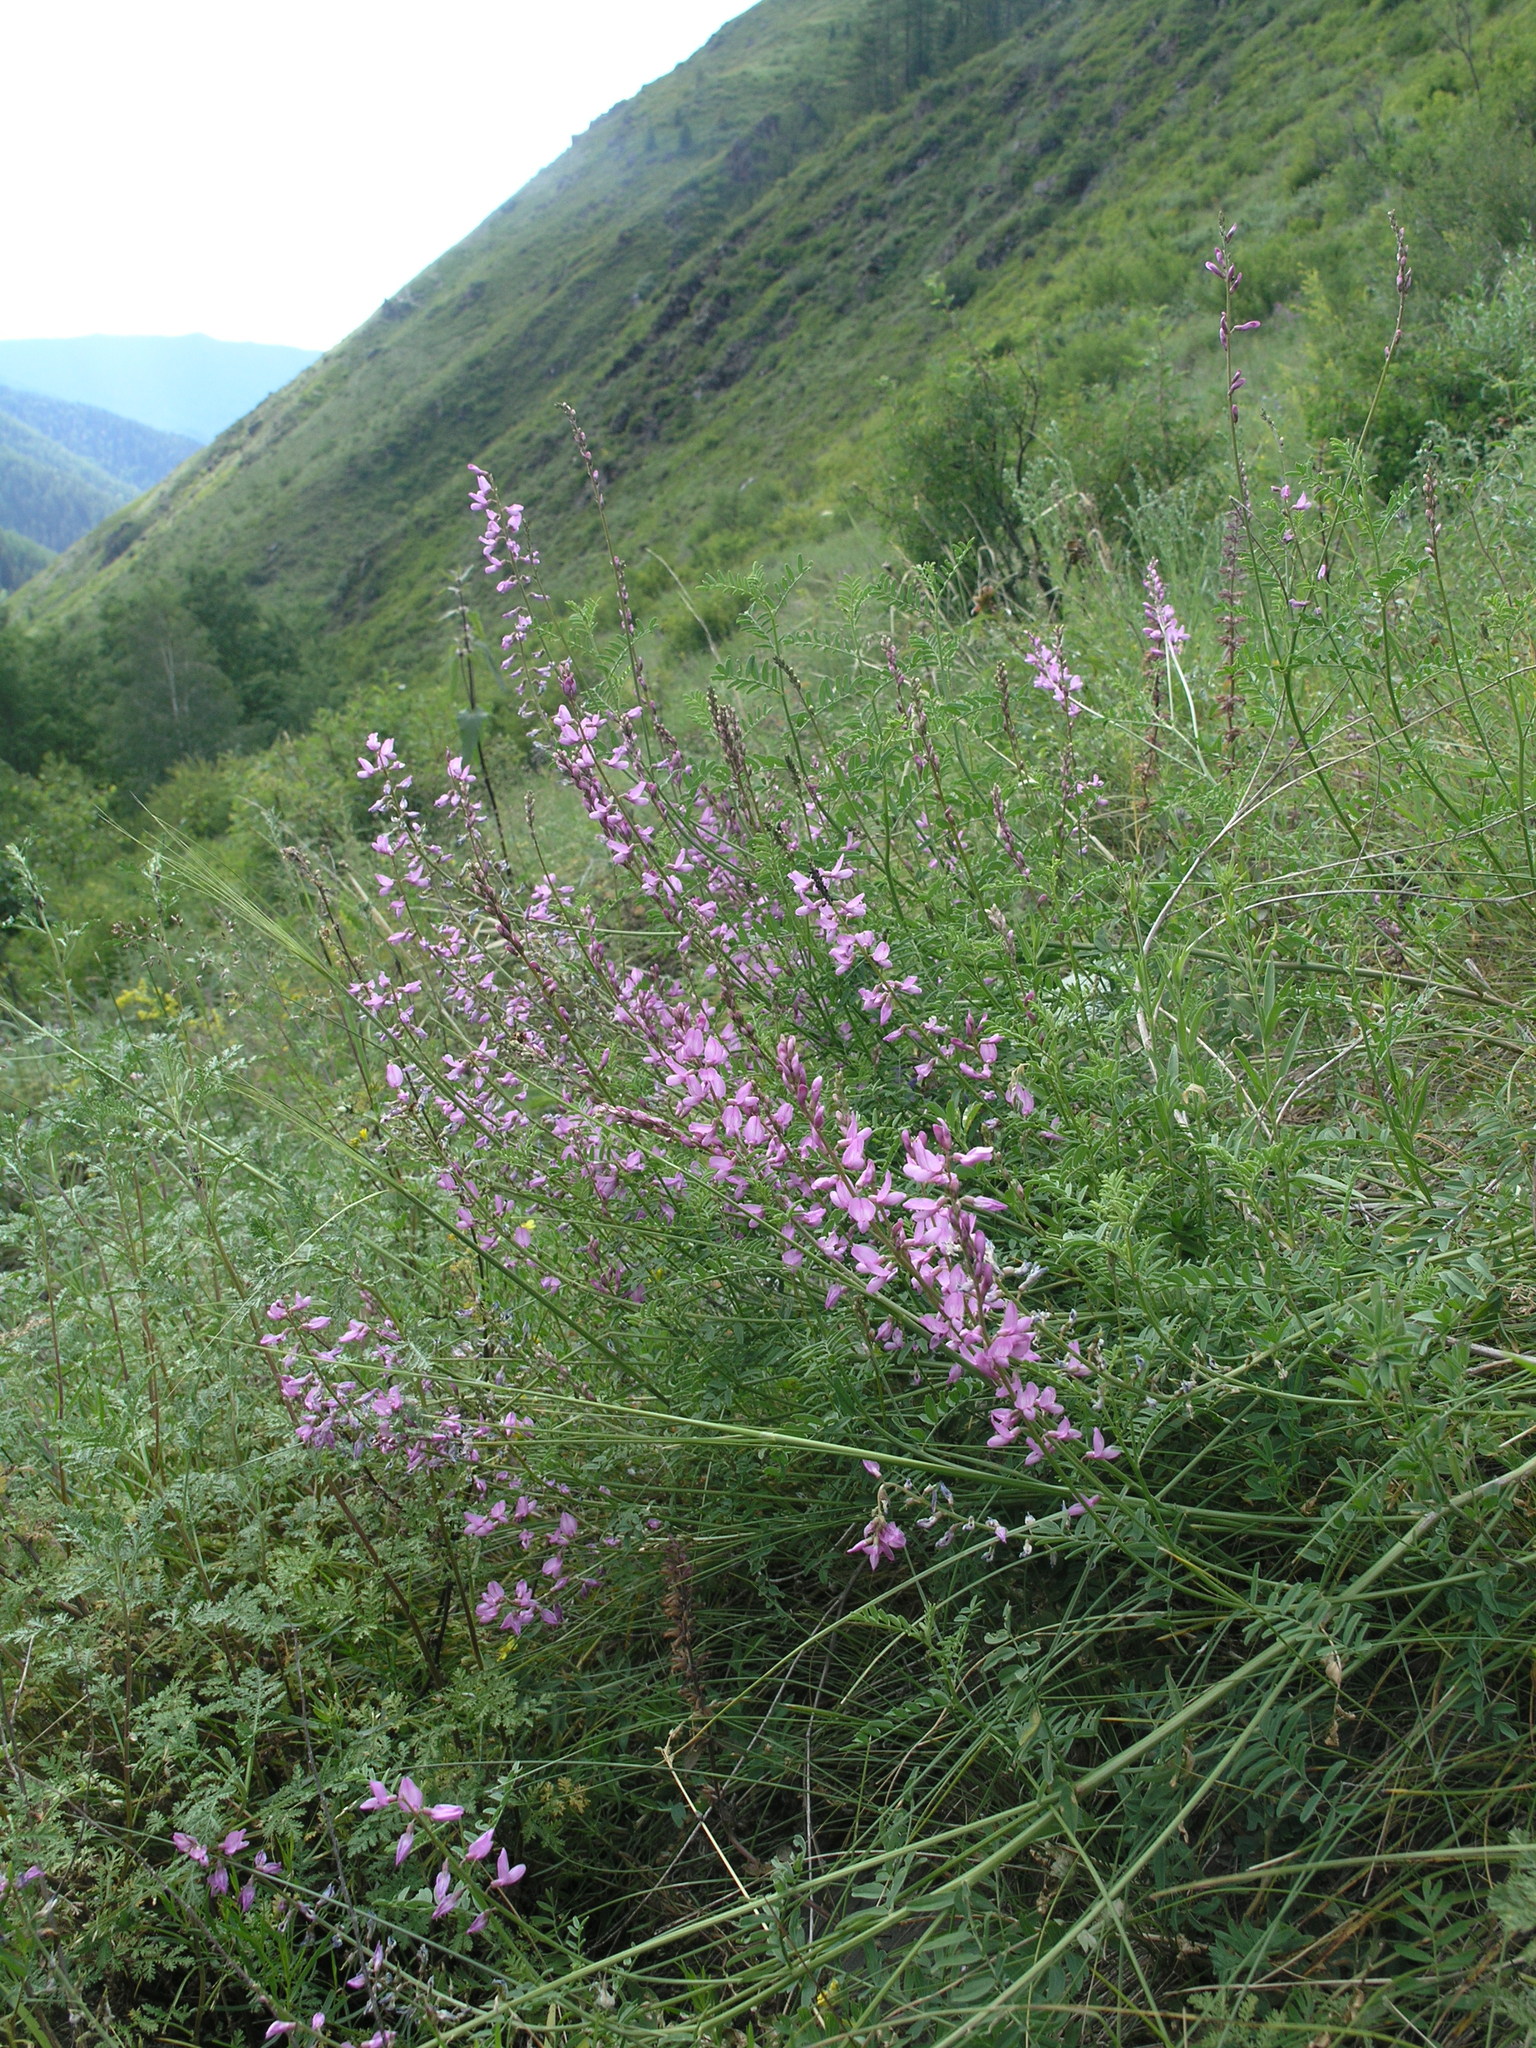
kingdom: Plantae
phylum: Tracheophyta
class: Magnoliopsida
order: Fabales
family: Fabaceae
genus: Astragalus
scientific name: Astragalus leptostachys
